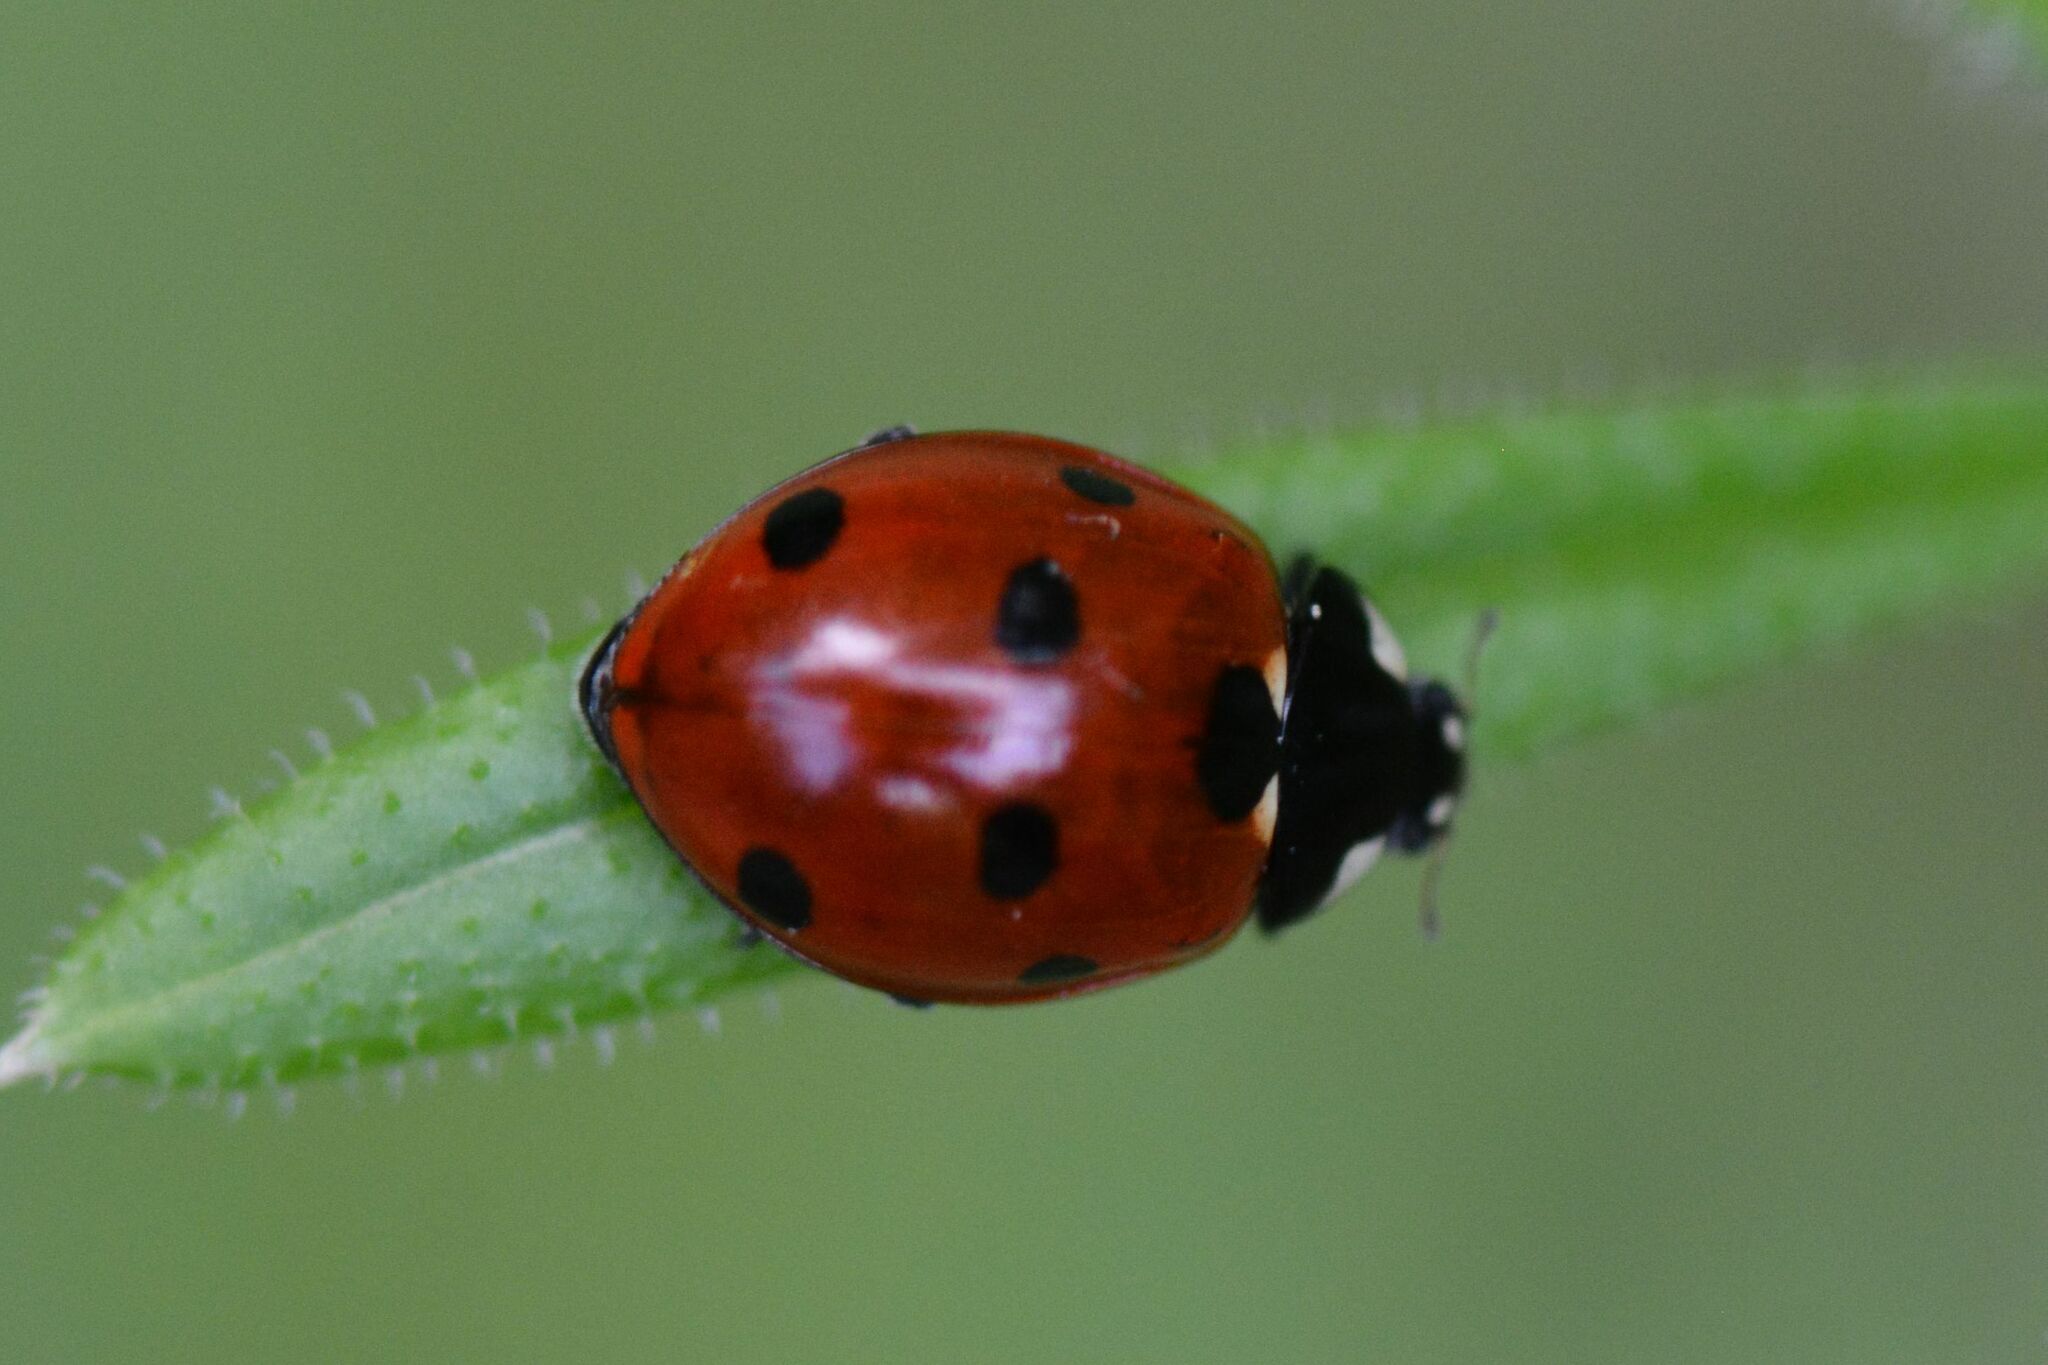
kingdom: Animalia
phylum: Arthropoda
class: Insecta
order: Coleoptera
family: Coccinellidae
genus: Coccinella
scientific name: Coccinella septempunctata
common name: Sevenspotted lady beetle
